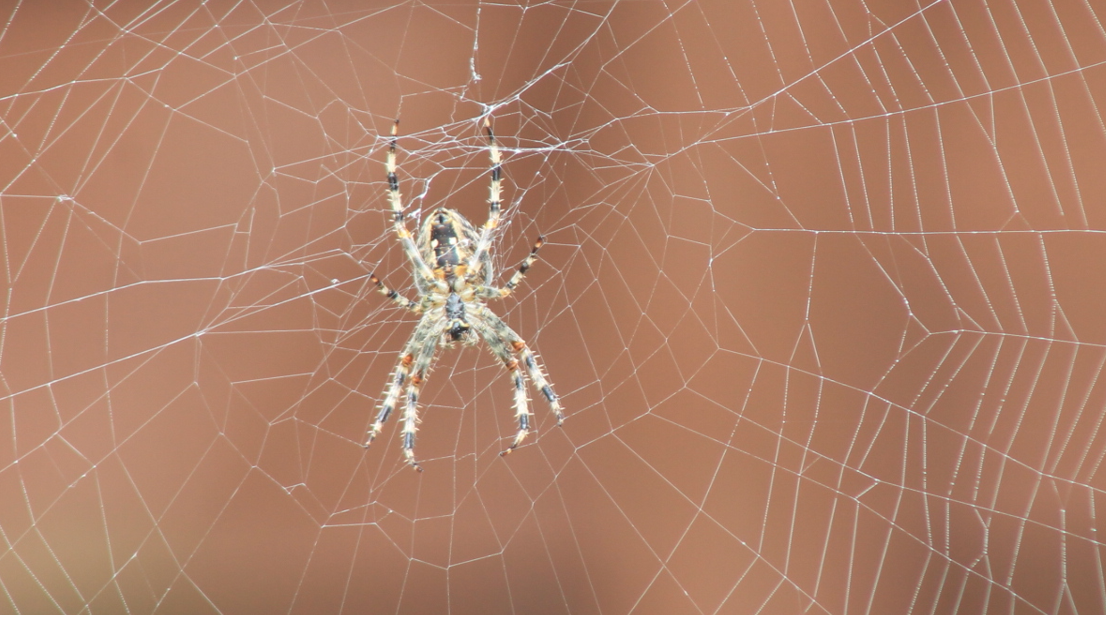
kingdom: Animalia
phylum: Arthropoda
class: Arachnida
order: Araneae
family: Araneidae
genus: Araneus
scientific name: Araneus diadematus
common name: Cross orbweaver
